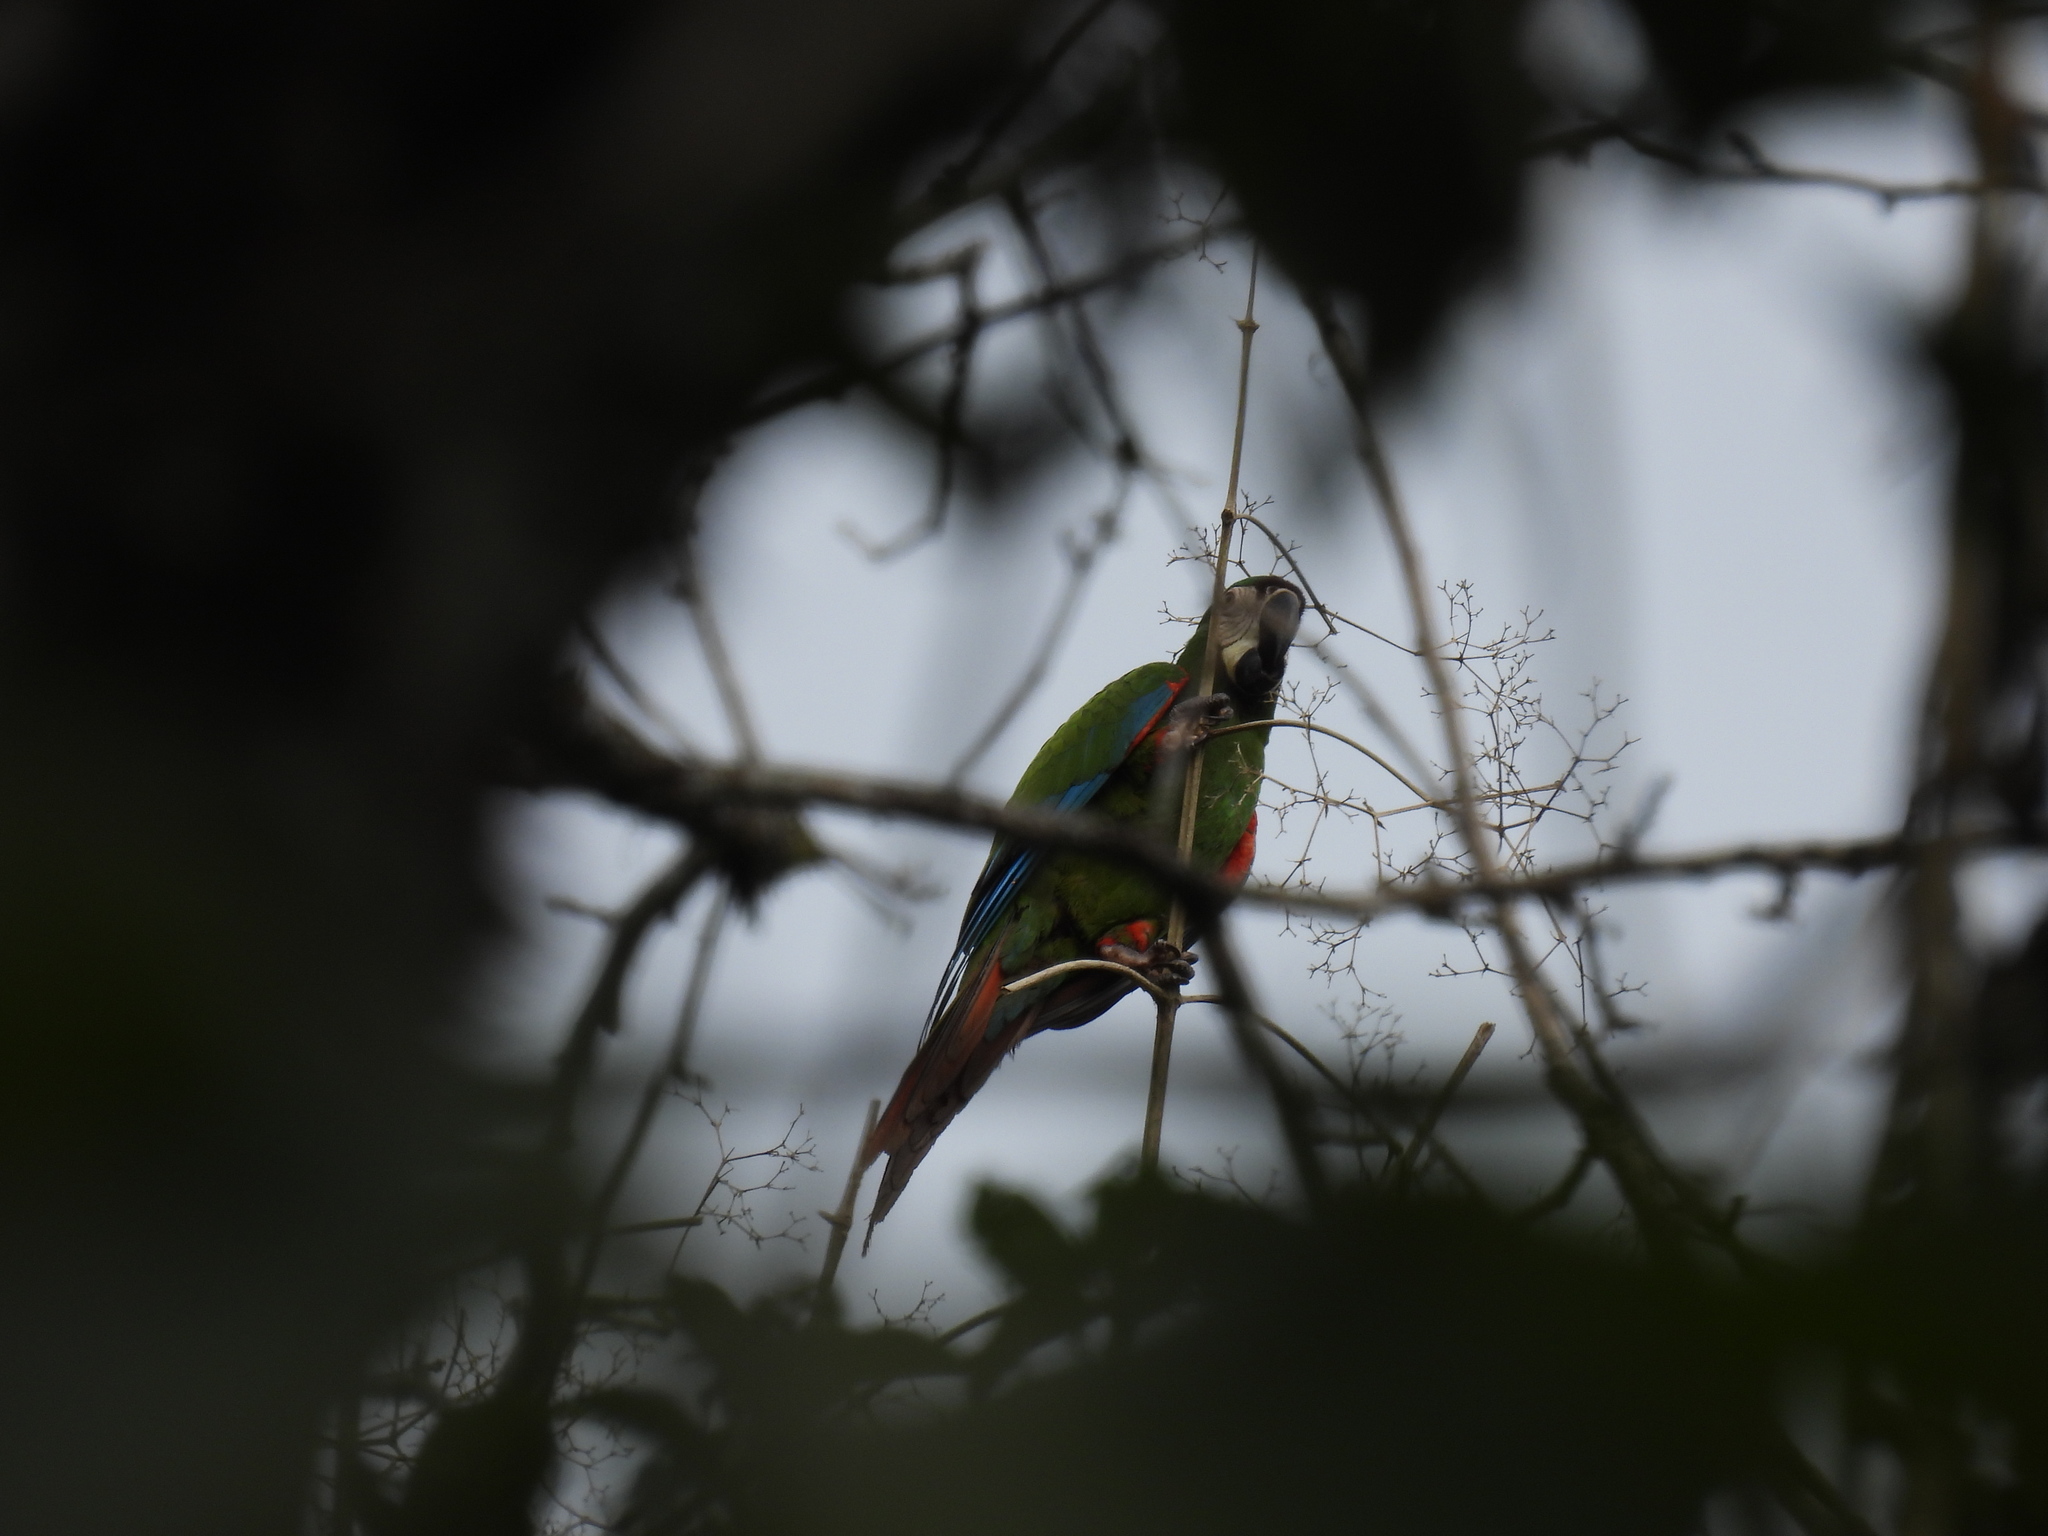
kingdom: Animalia
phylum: Chordata
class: Aves
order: Psittaciformes
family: Psittacidae
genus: Ara
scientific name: Ara severus
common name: Chestnut-fronted macaw
